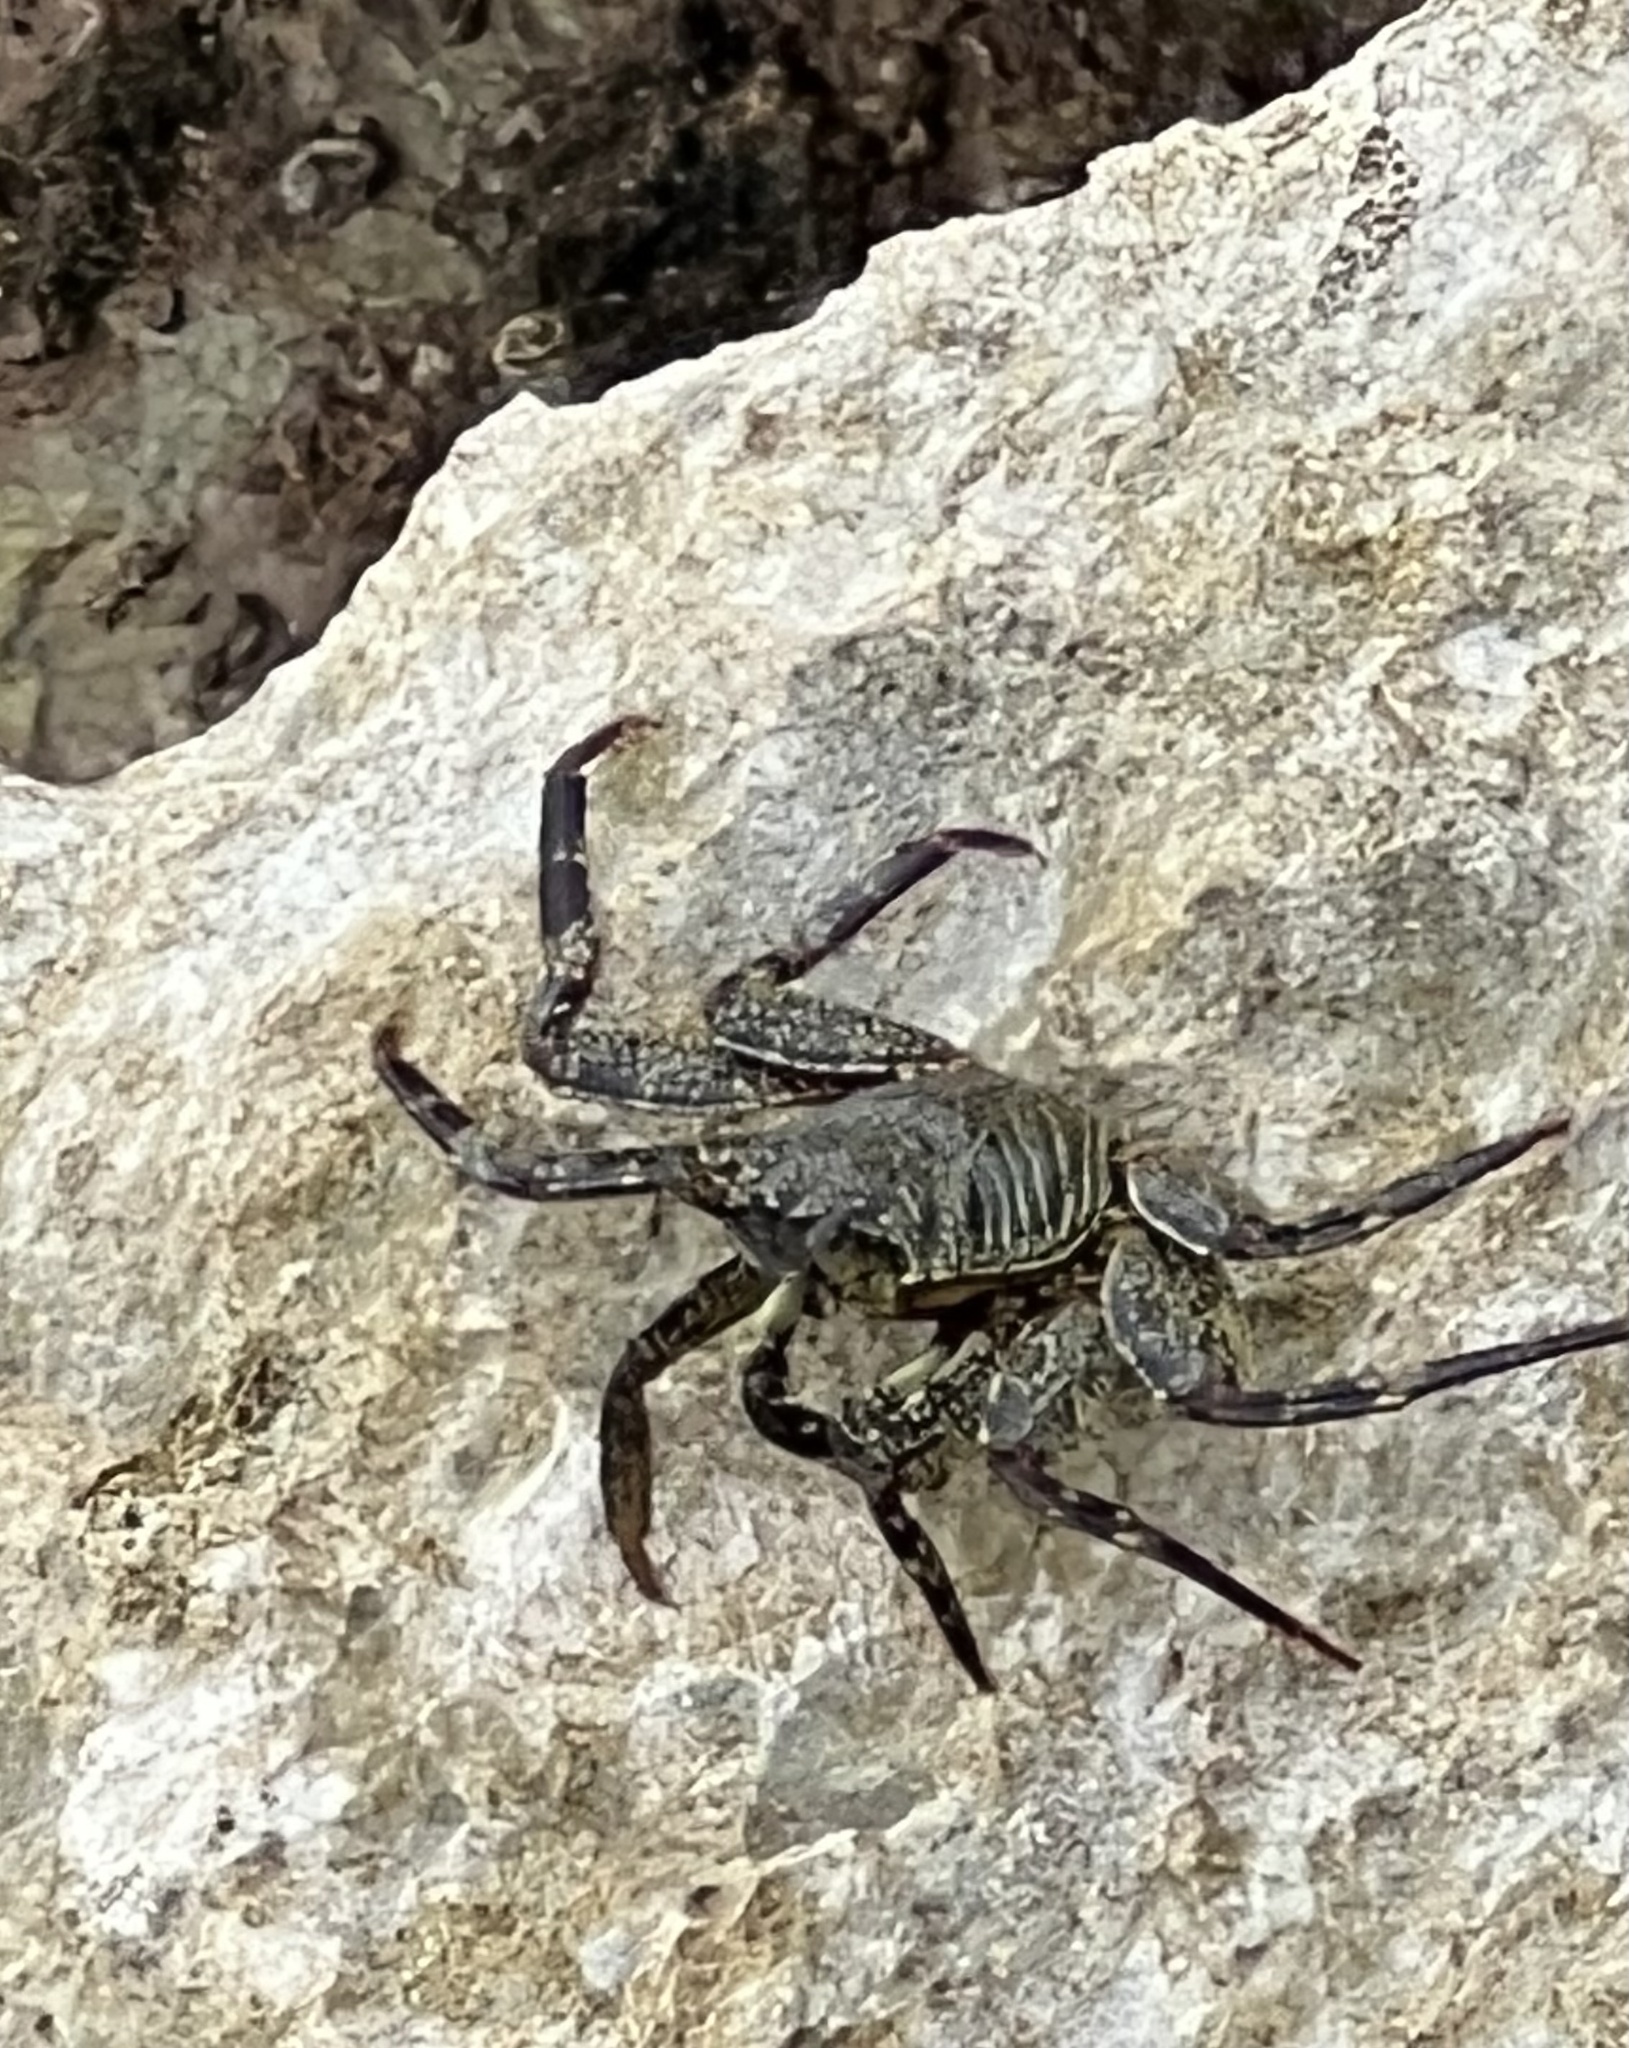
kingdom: Animalia
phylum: Arthropoda
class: Malacostraca
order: Decapoda
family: Grapsidae
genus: Grapsus
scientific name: Grapsus tenuicrustatus
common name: Natal lightfoot crab
